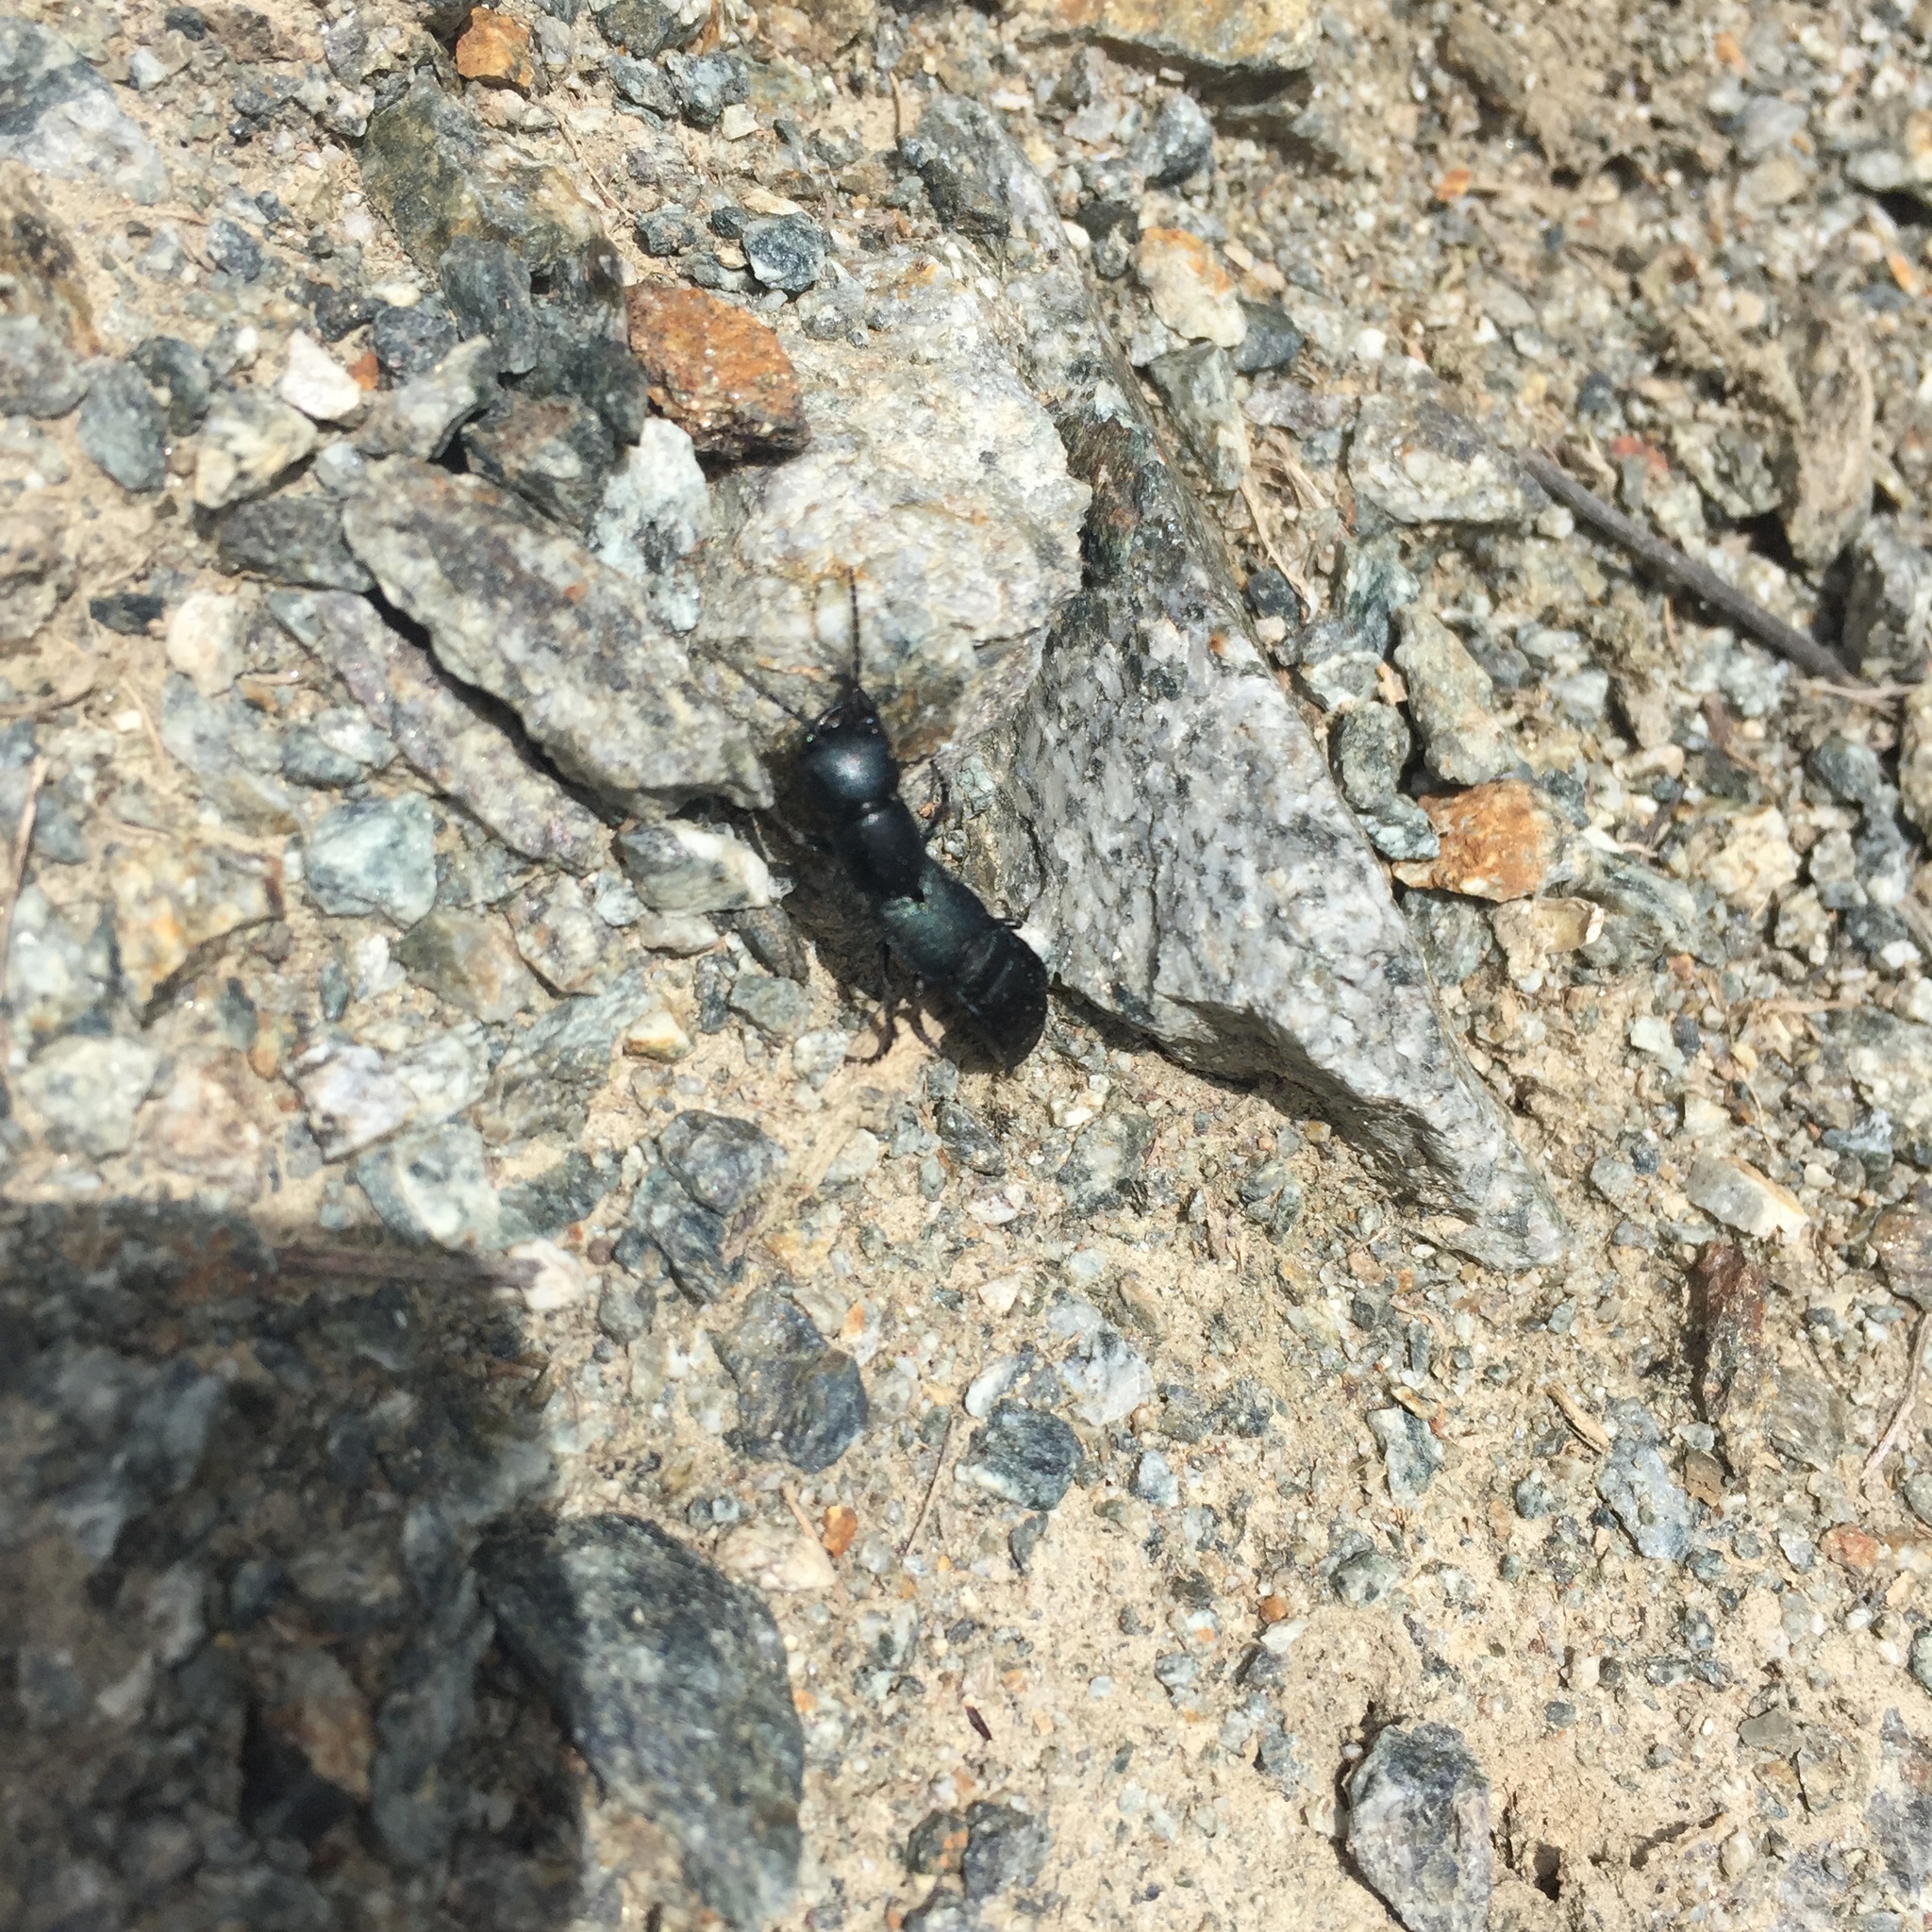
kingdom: Animalia
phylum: Arthropoda
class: Insecta
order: Coleoptera
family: Staphylinidae
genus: Ocypus
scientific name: Ocypus ophthalmicus
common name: Blue rove-beetle
